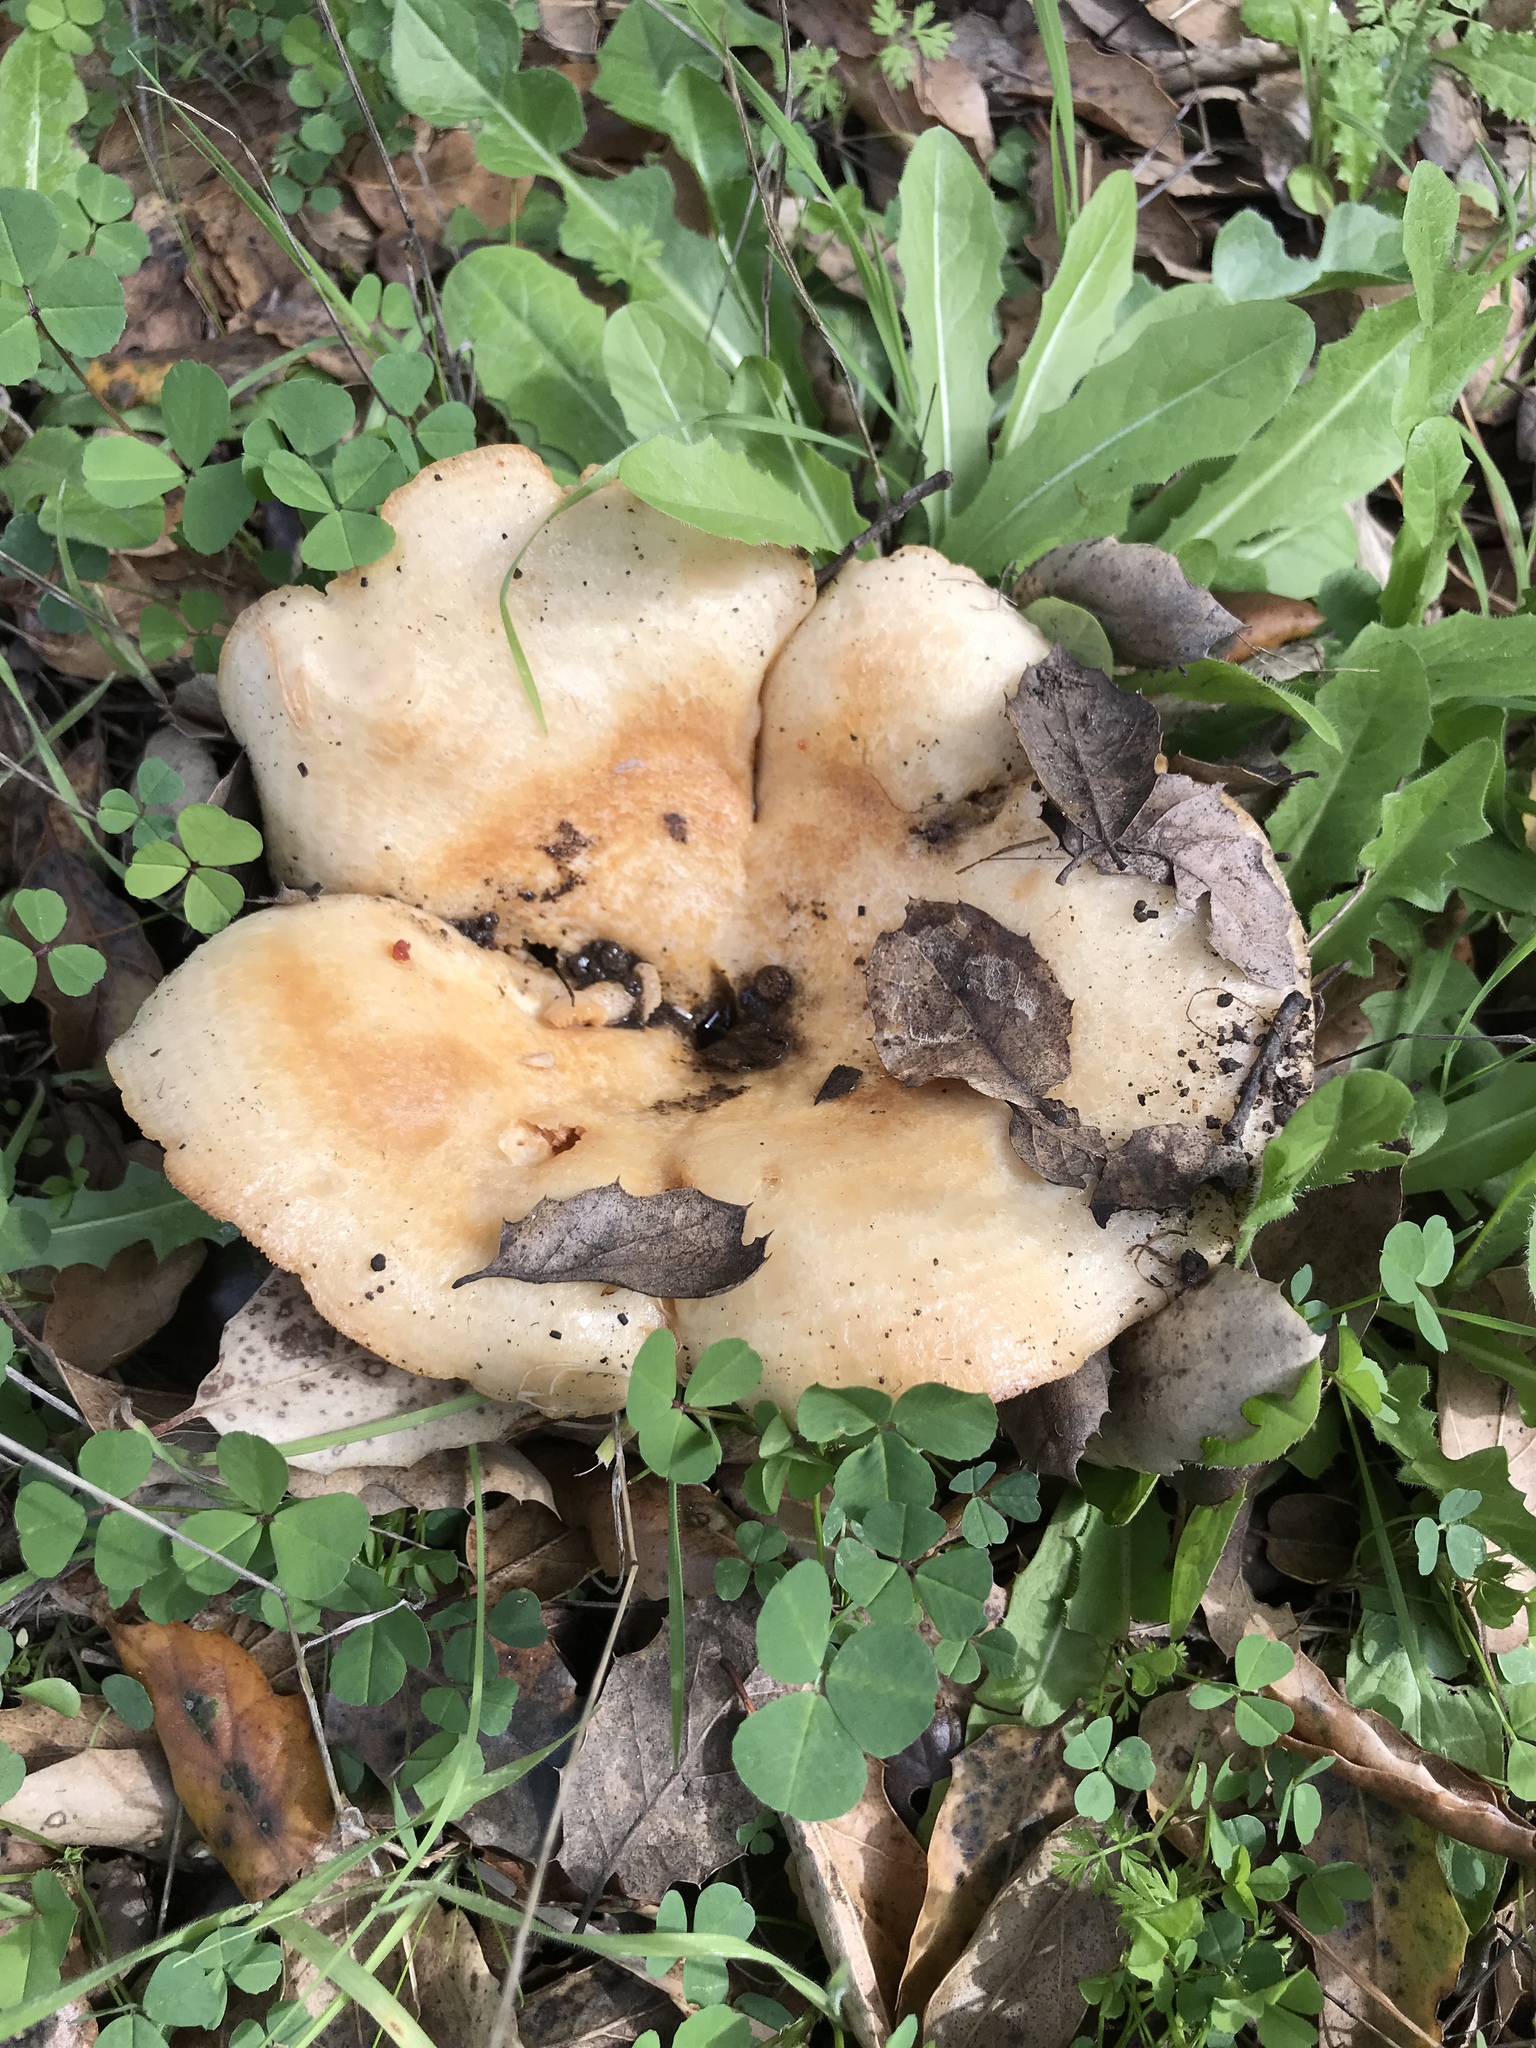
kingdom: Fungi
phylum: Basidiomycota
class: Agaricomycetes
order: Russulales
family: Russulaceae
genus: Lactarius
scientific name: Lactarius deliciosus
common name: Saffron milk-cap
